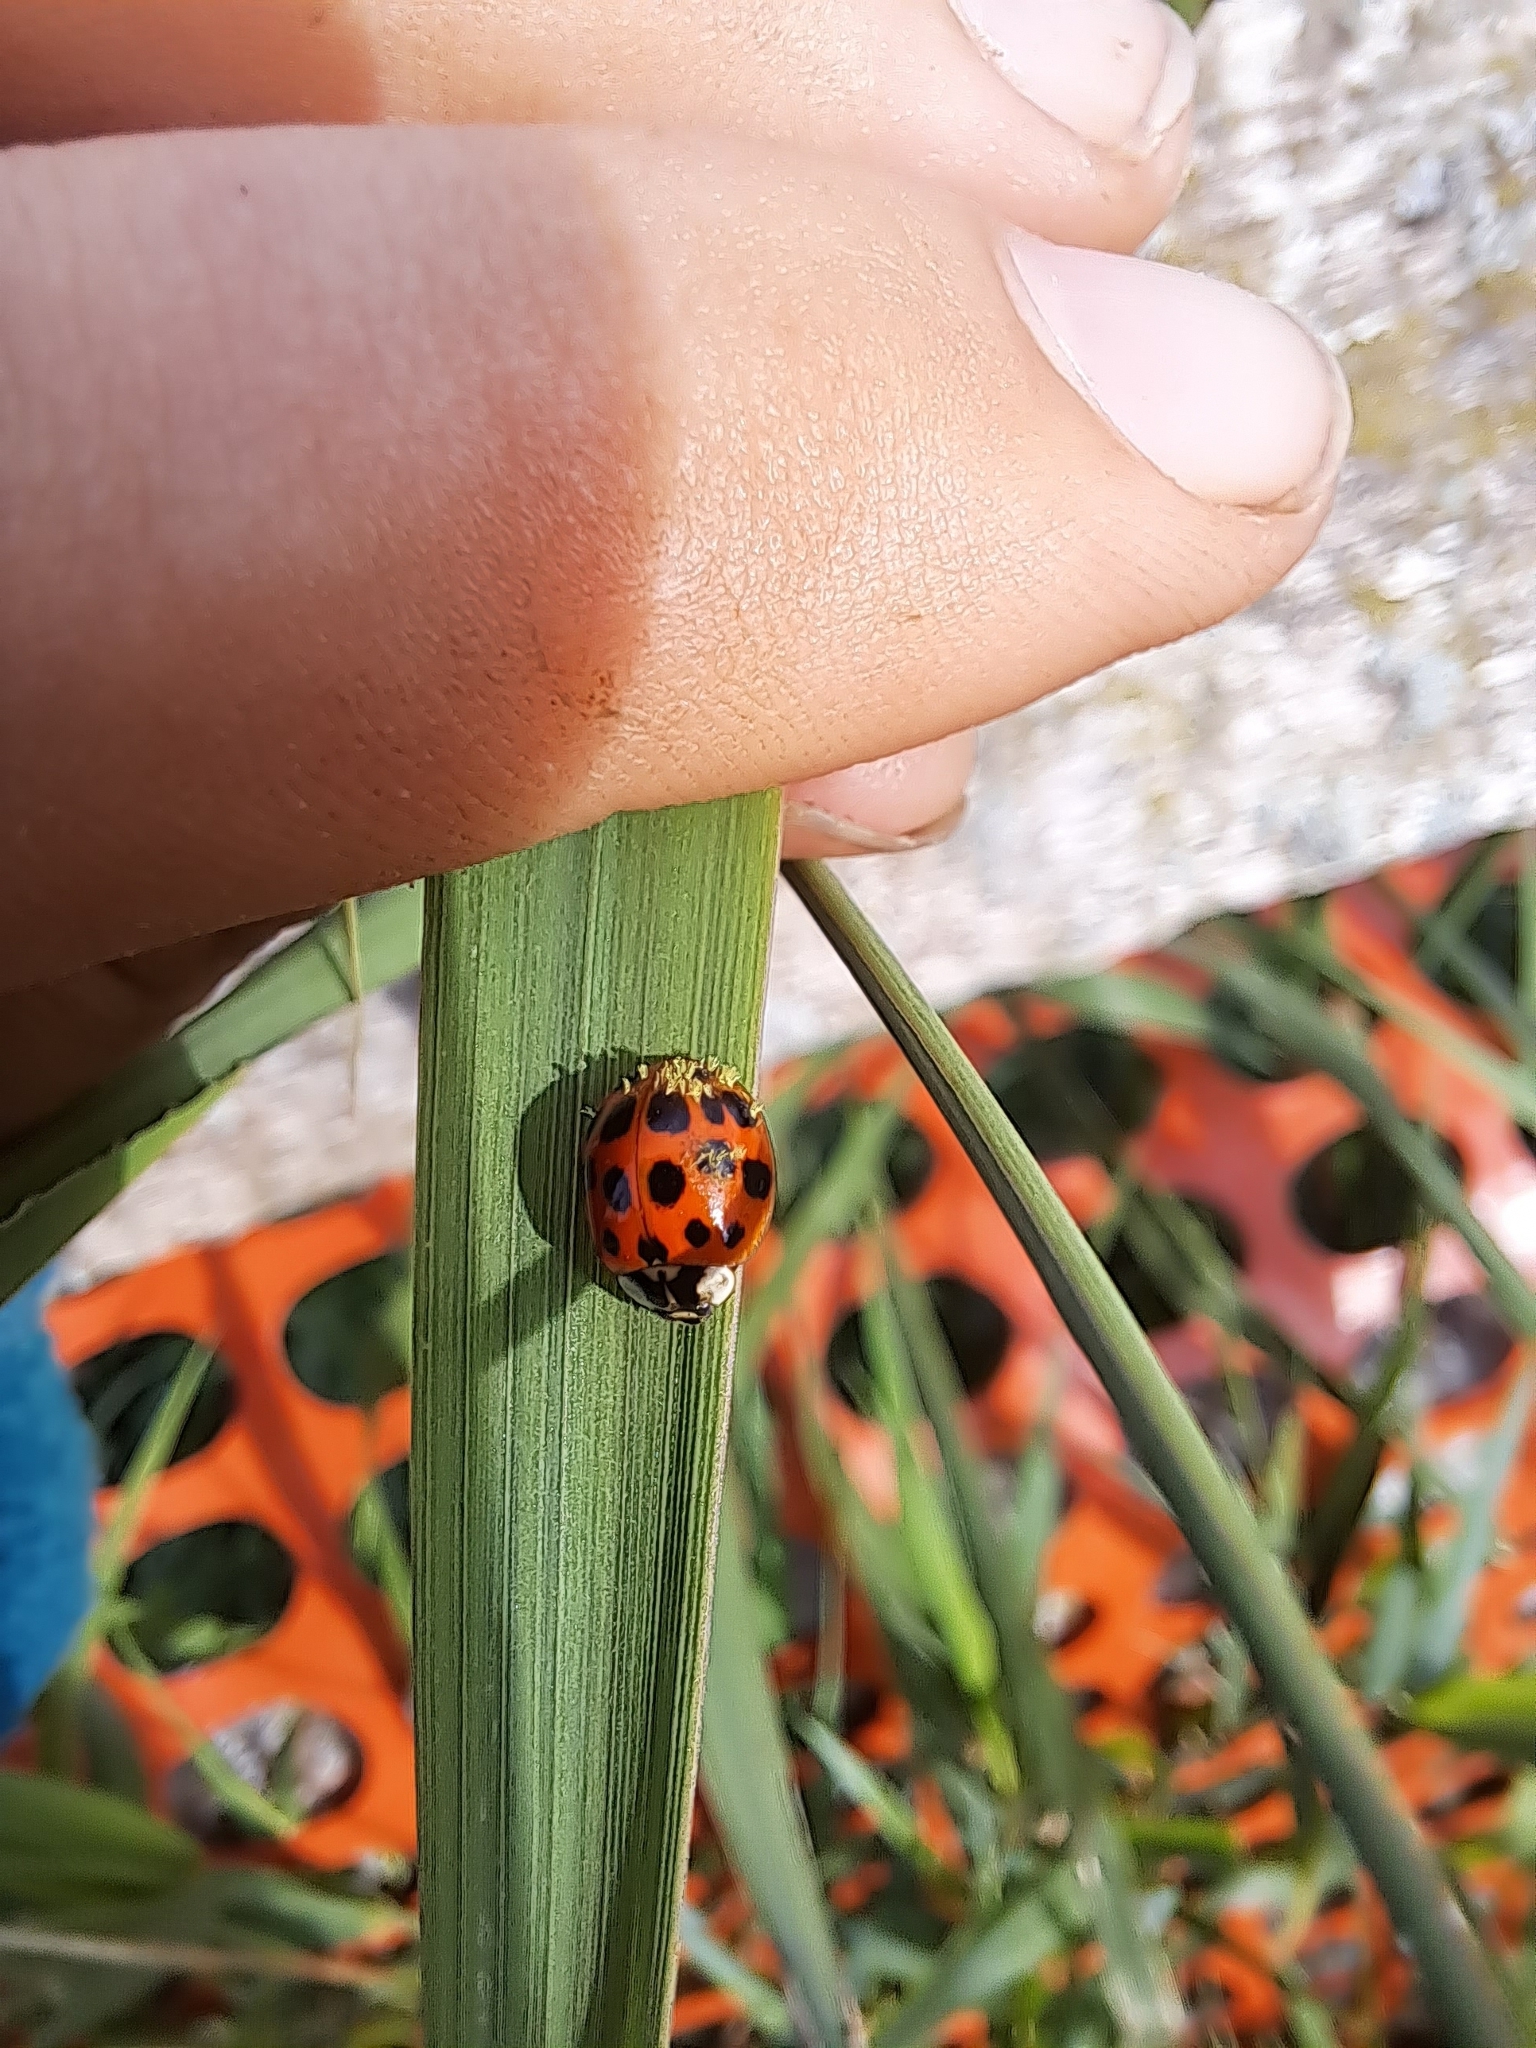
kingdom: Fungi
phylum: Ascomycota
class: Laboulbeniomycetes
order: Laboulbeniales
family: Laboulbeniaceae
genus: Hesperomyces
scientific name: Hesperomyces harmoniae
